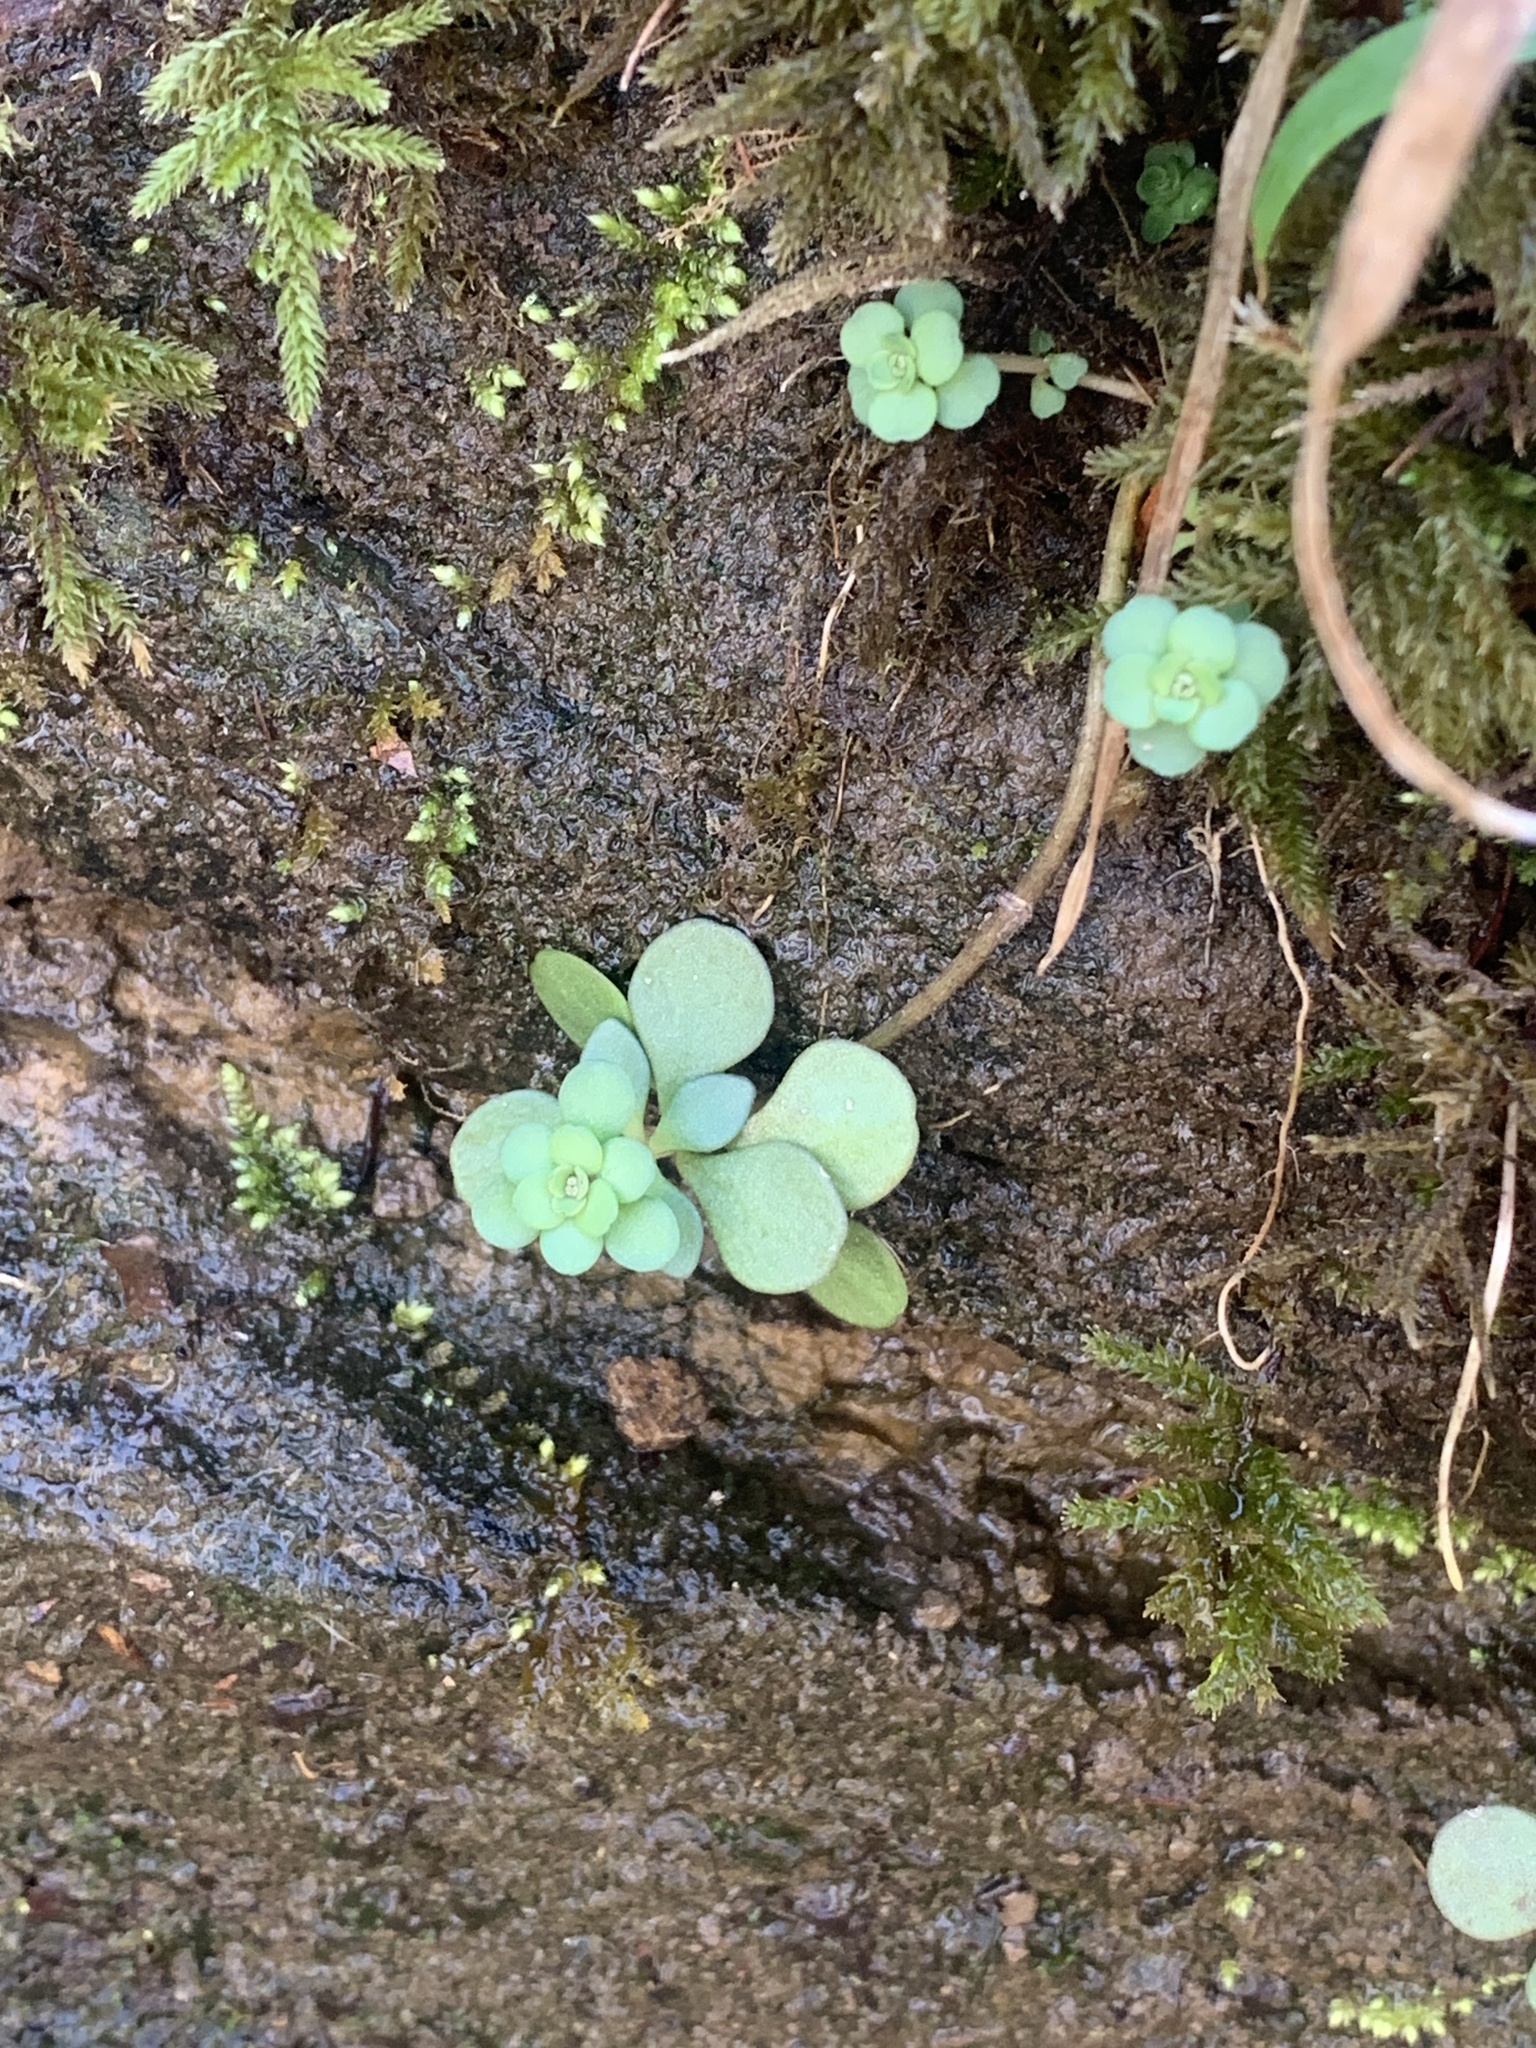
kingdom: Plantae
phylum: Tracheophyta
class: Magnoliopsida
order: Saxifragales
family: Crassulaceae
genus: Sedum
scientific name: Sedum ternatum
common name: Wild stonecrop
